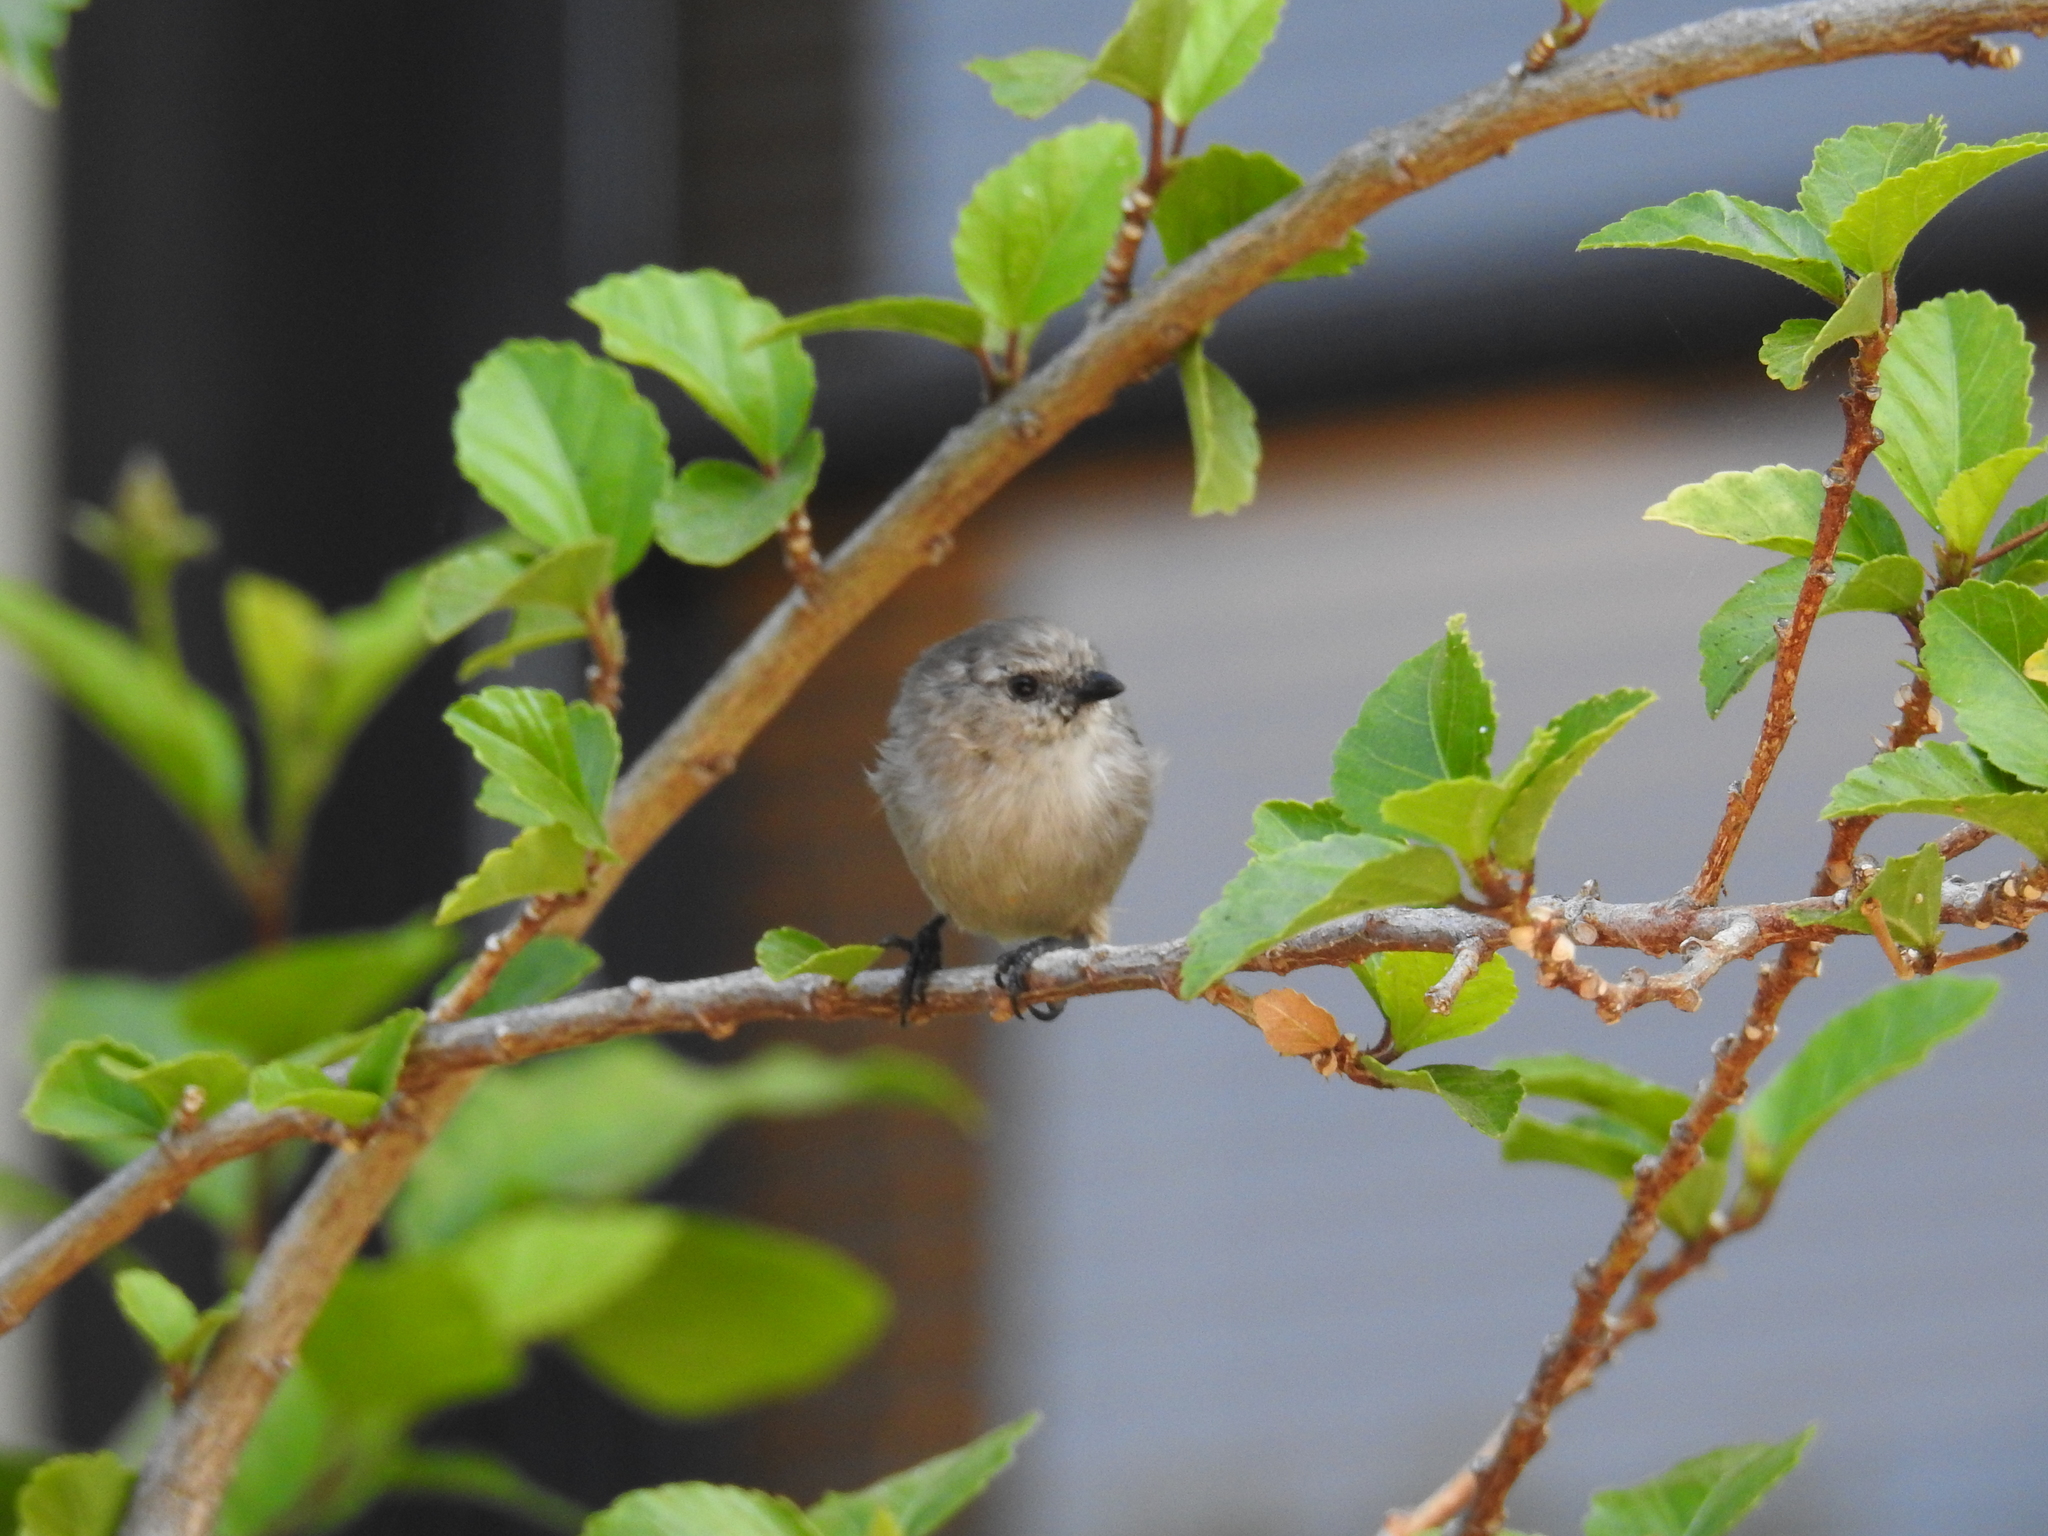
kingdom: Animalia
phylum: Chordata
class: Aves
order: Passeriformes
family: Aegithalidae
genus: Psaltriparus
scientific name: Psaltriparus minimus
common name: American bushtit
